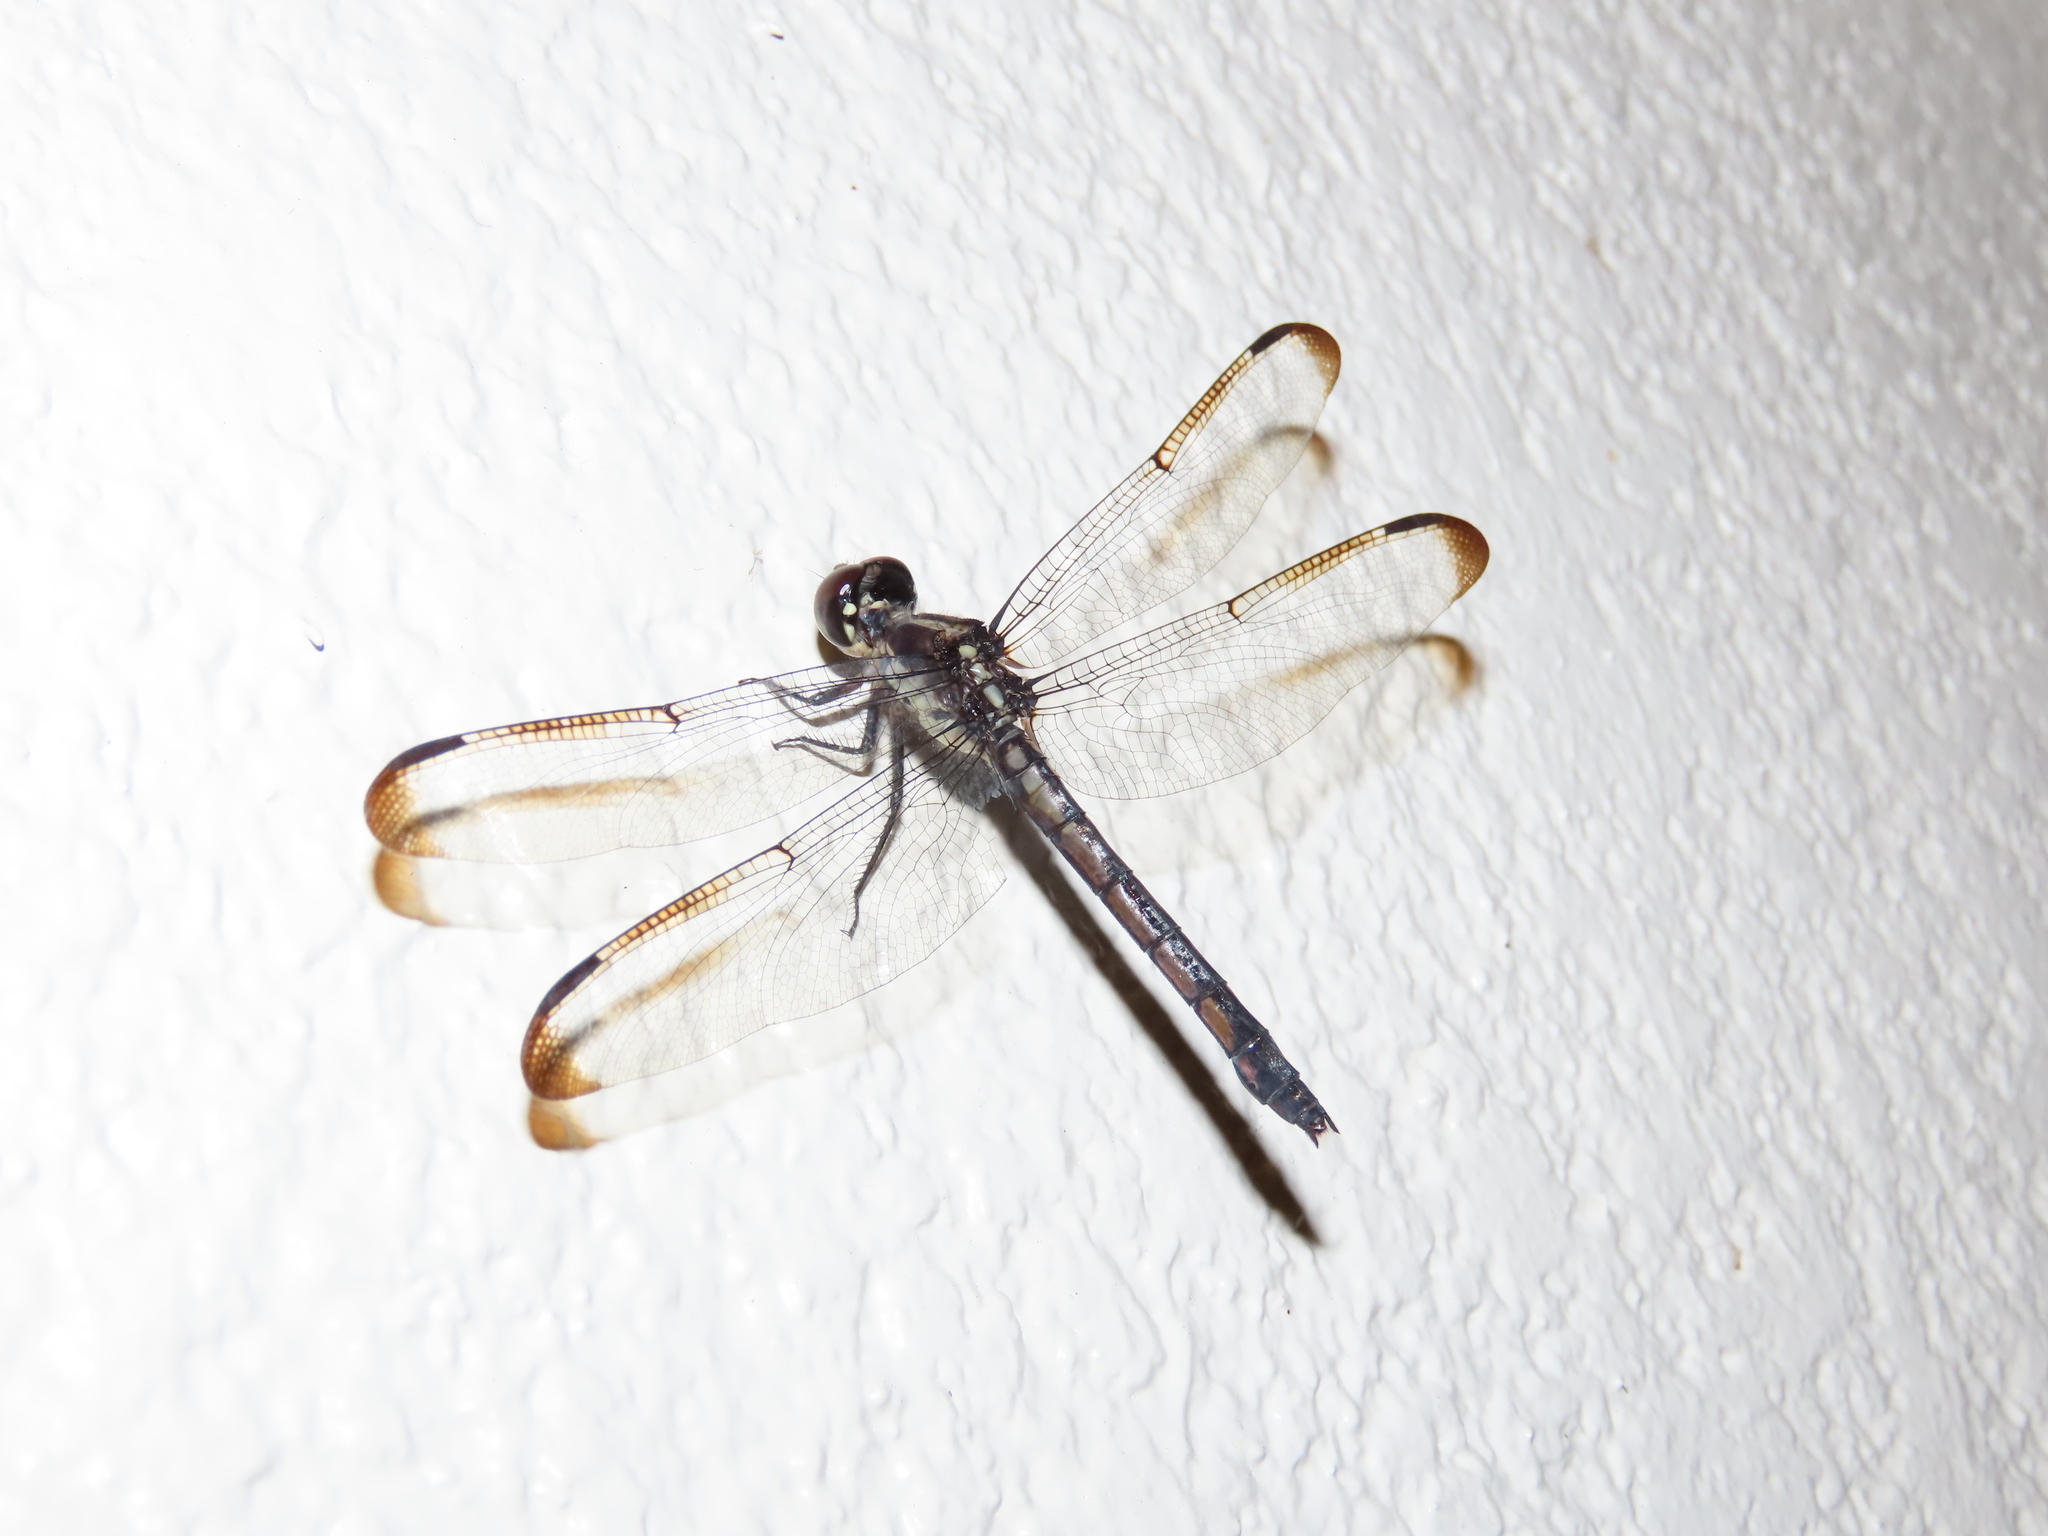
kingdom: Animalia
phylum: Arthropoda
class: Insecta
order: Odonata
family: Libellulidae
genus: Libellula
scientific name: Libellula incesta
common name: Slaty skimmer
